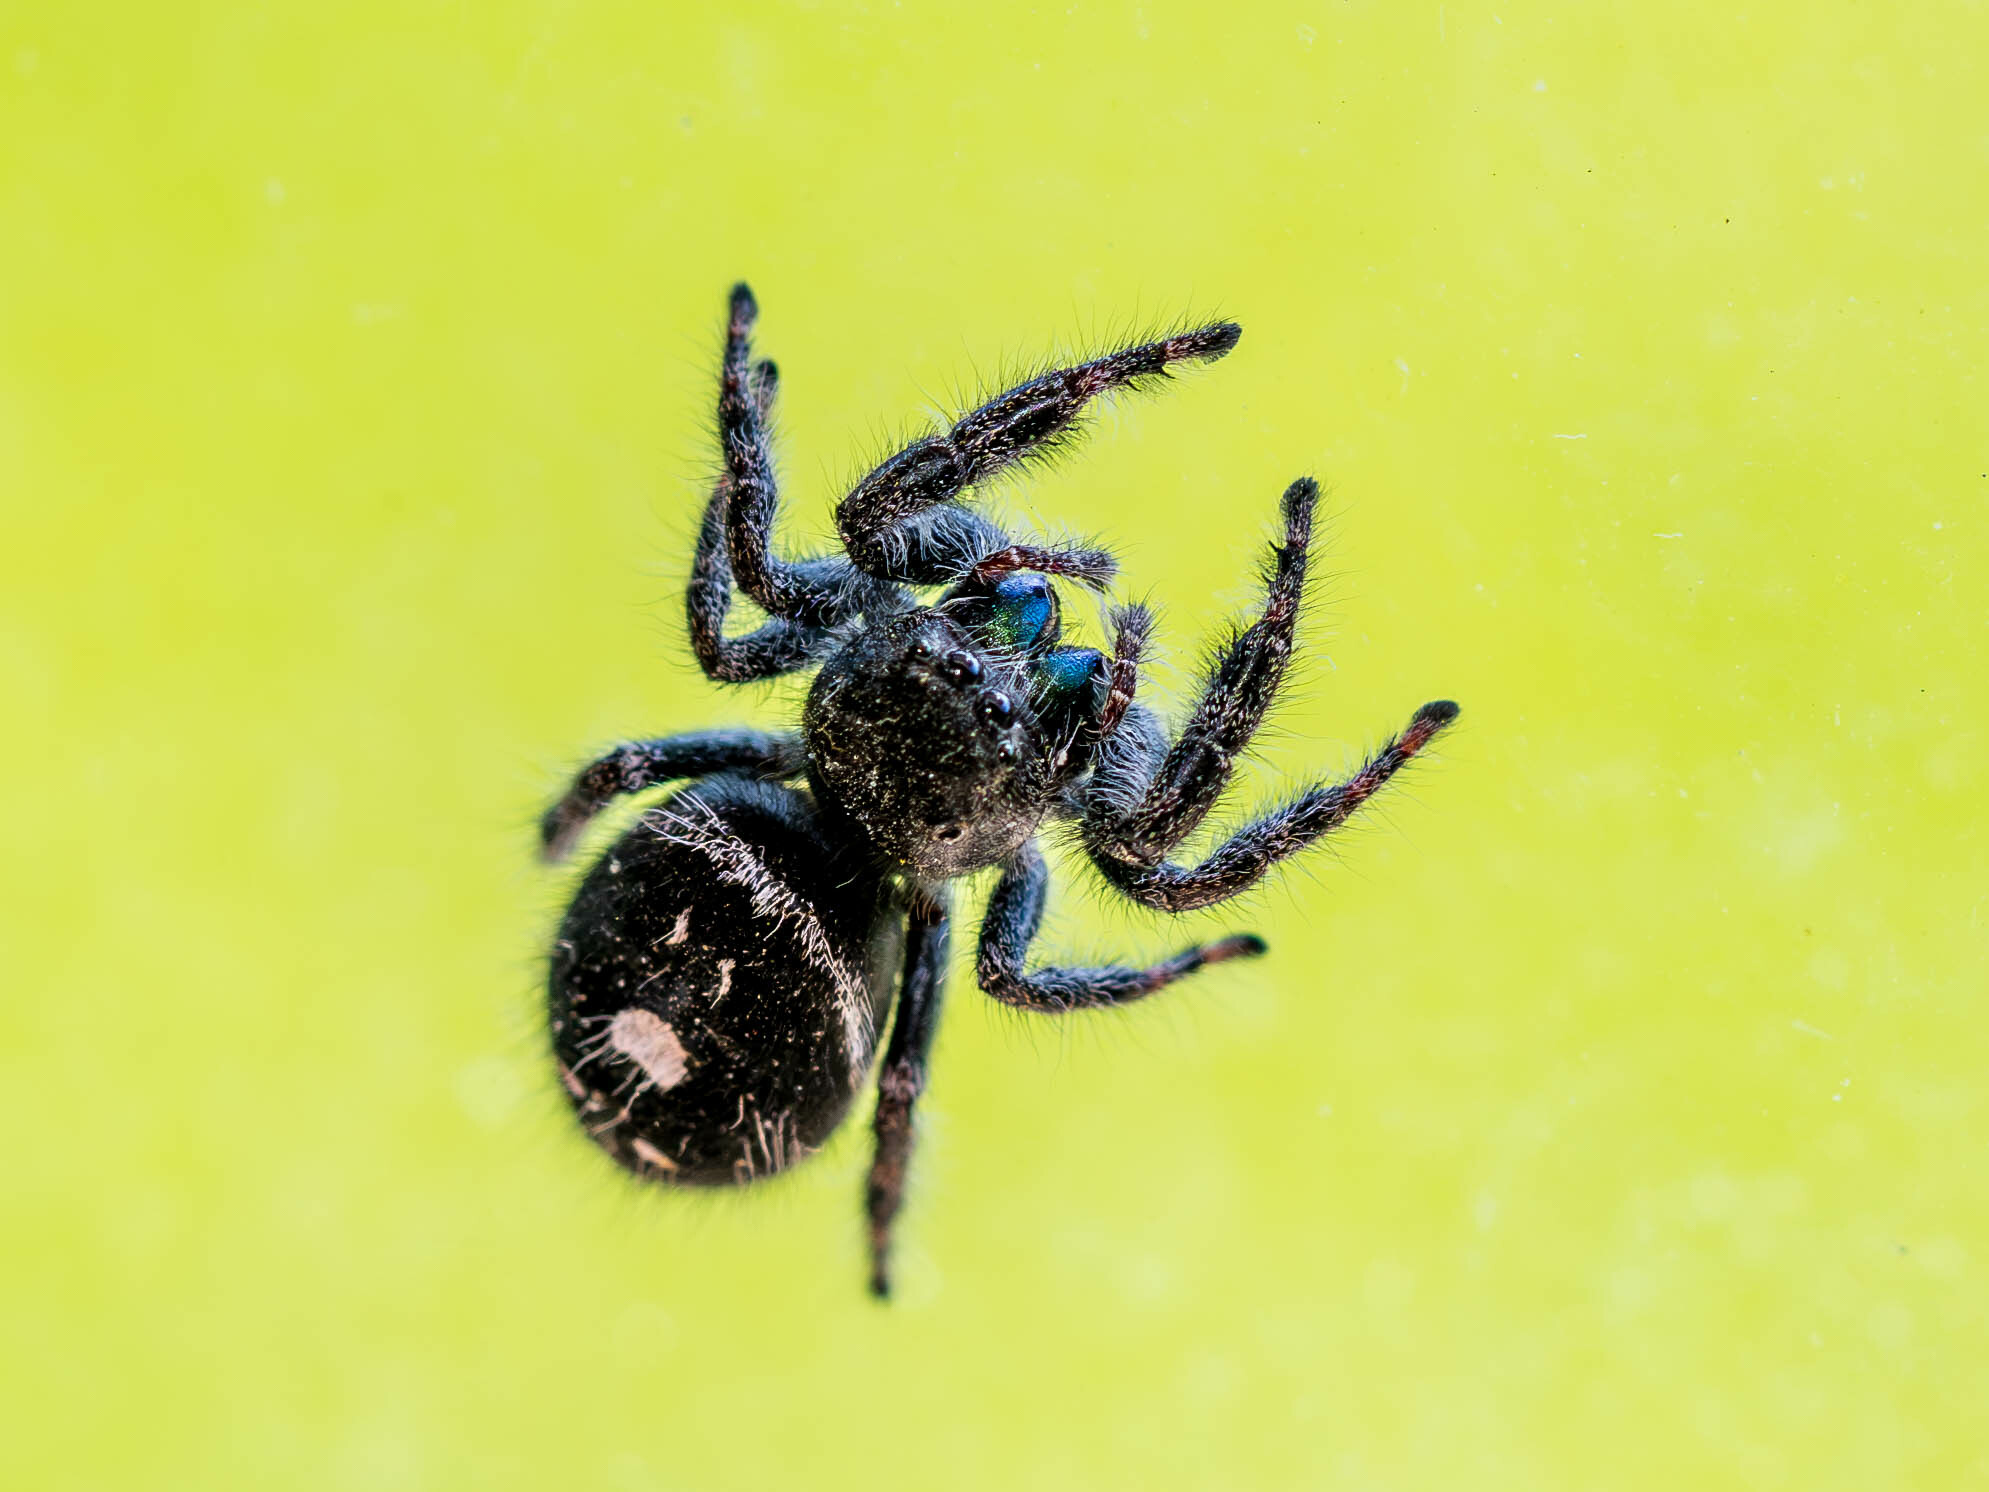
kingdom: Animalia
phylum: Arthropoda
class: Arachnida
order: Araneae
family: Salticidae
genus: Phidippus
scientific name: Phidippus audax
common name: Bold jumper
